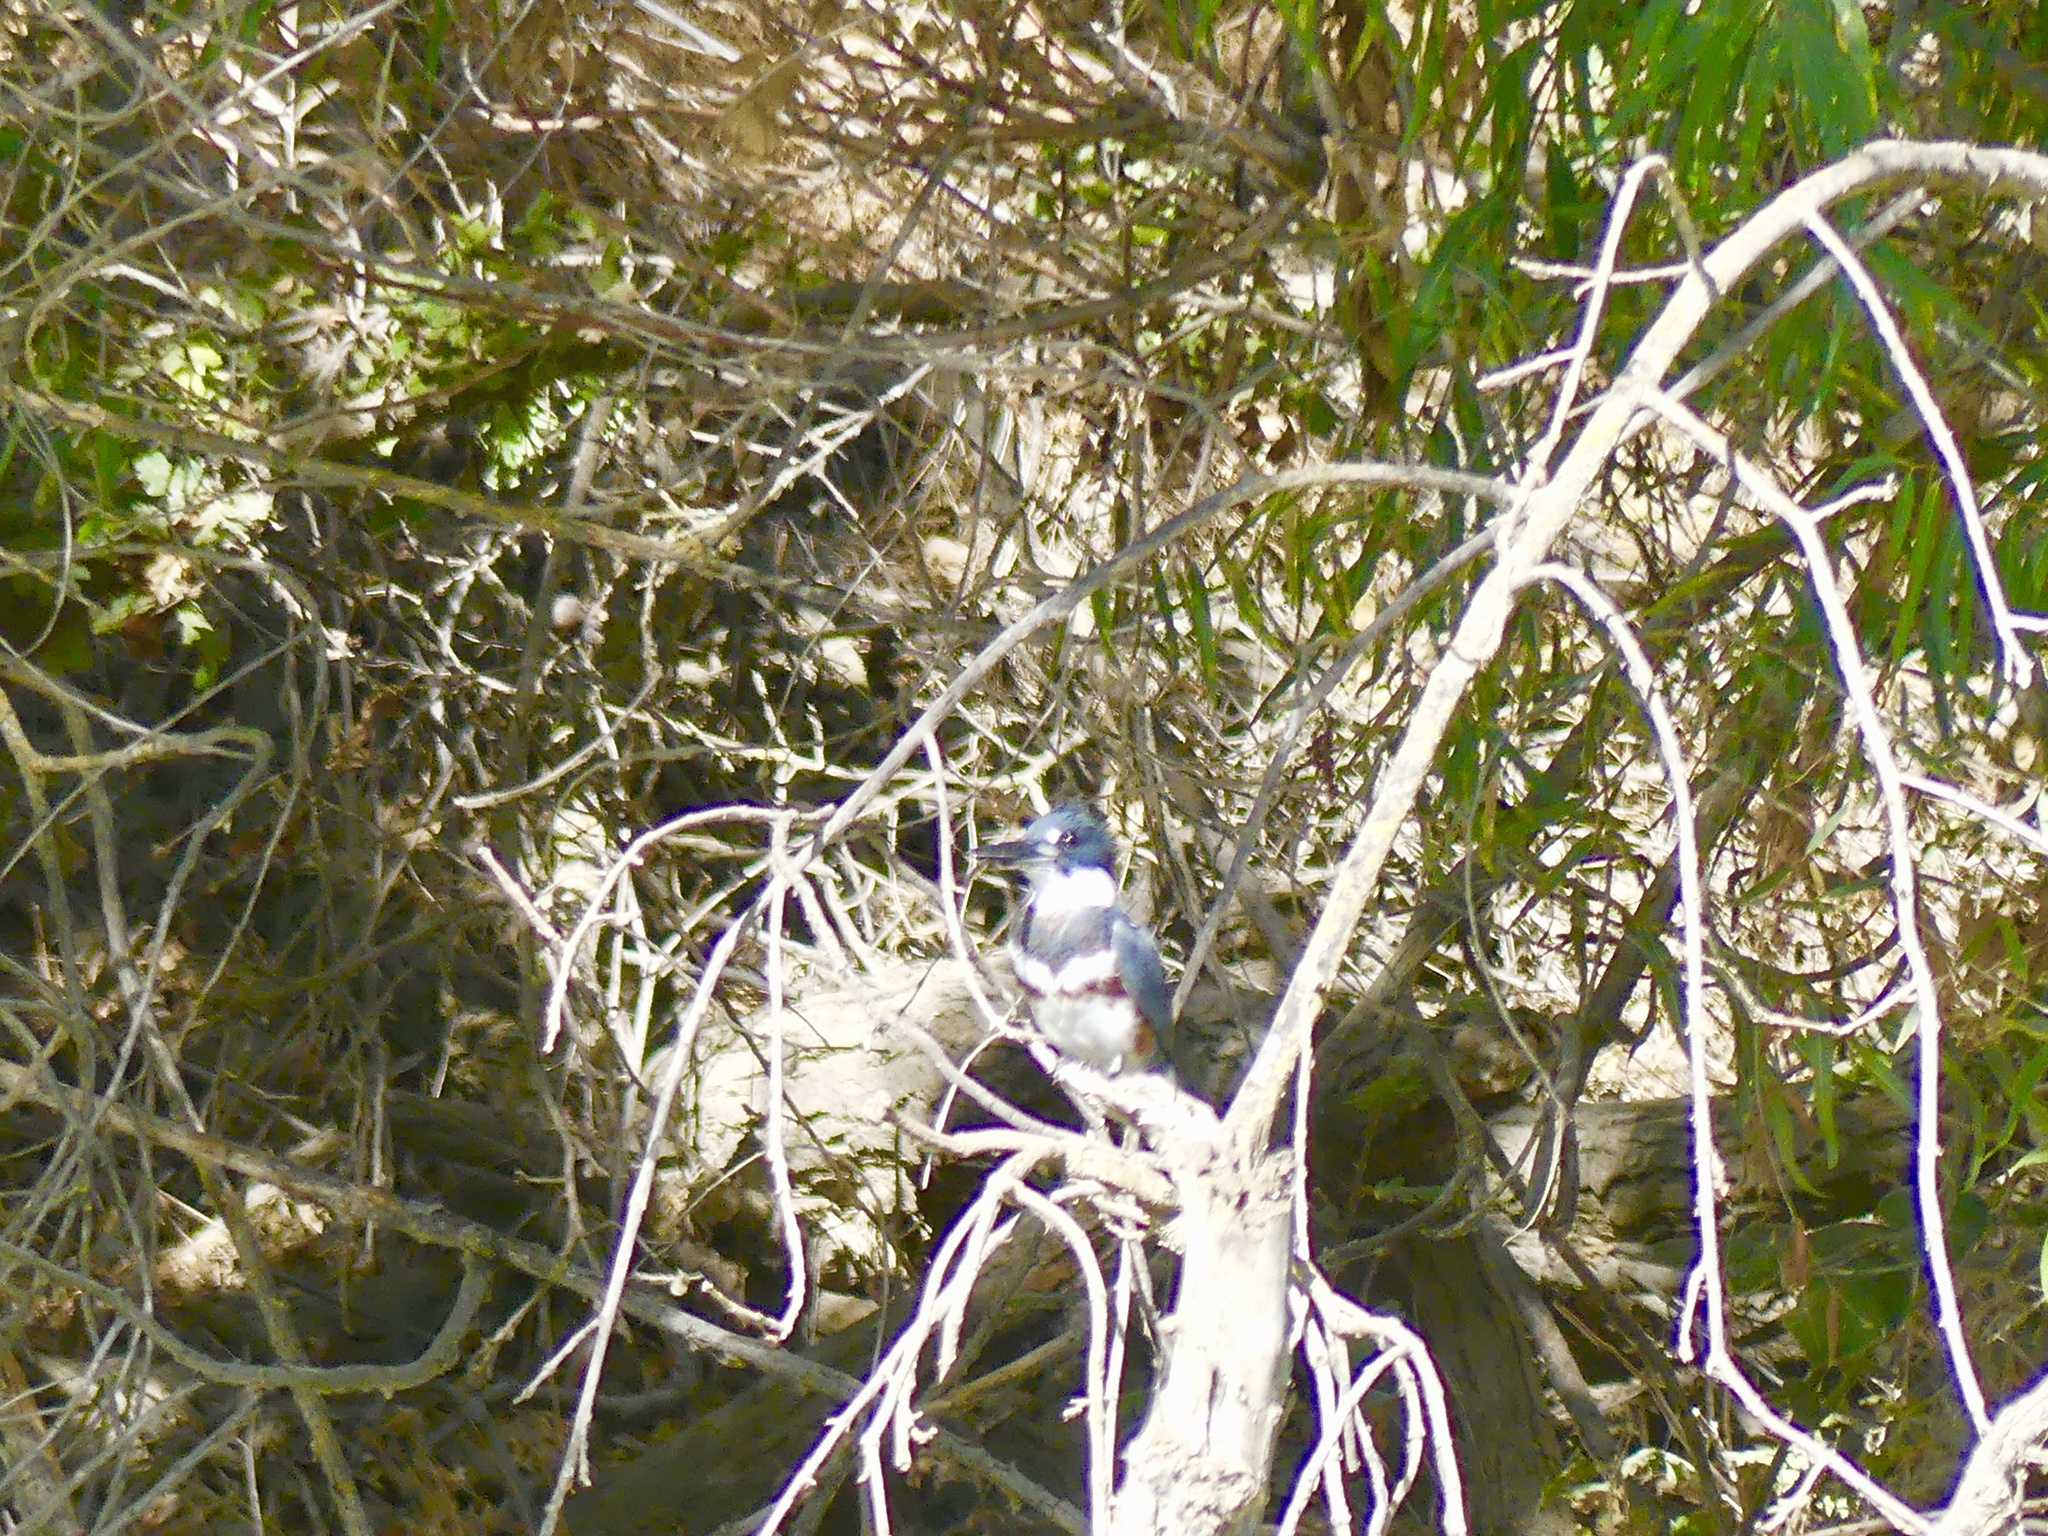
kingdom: Animalia
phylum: Chordata
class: Aves
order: Coraciiformes
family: Alcedinidae
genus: Megaceryle
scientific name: Megaceryle alcyon
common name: Belted kingfisher
